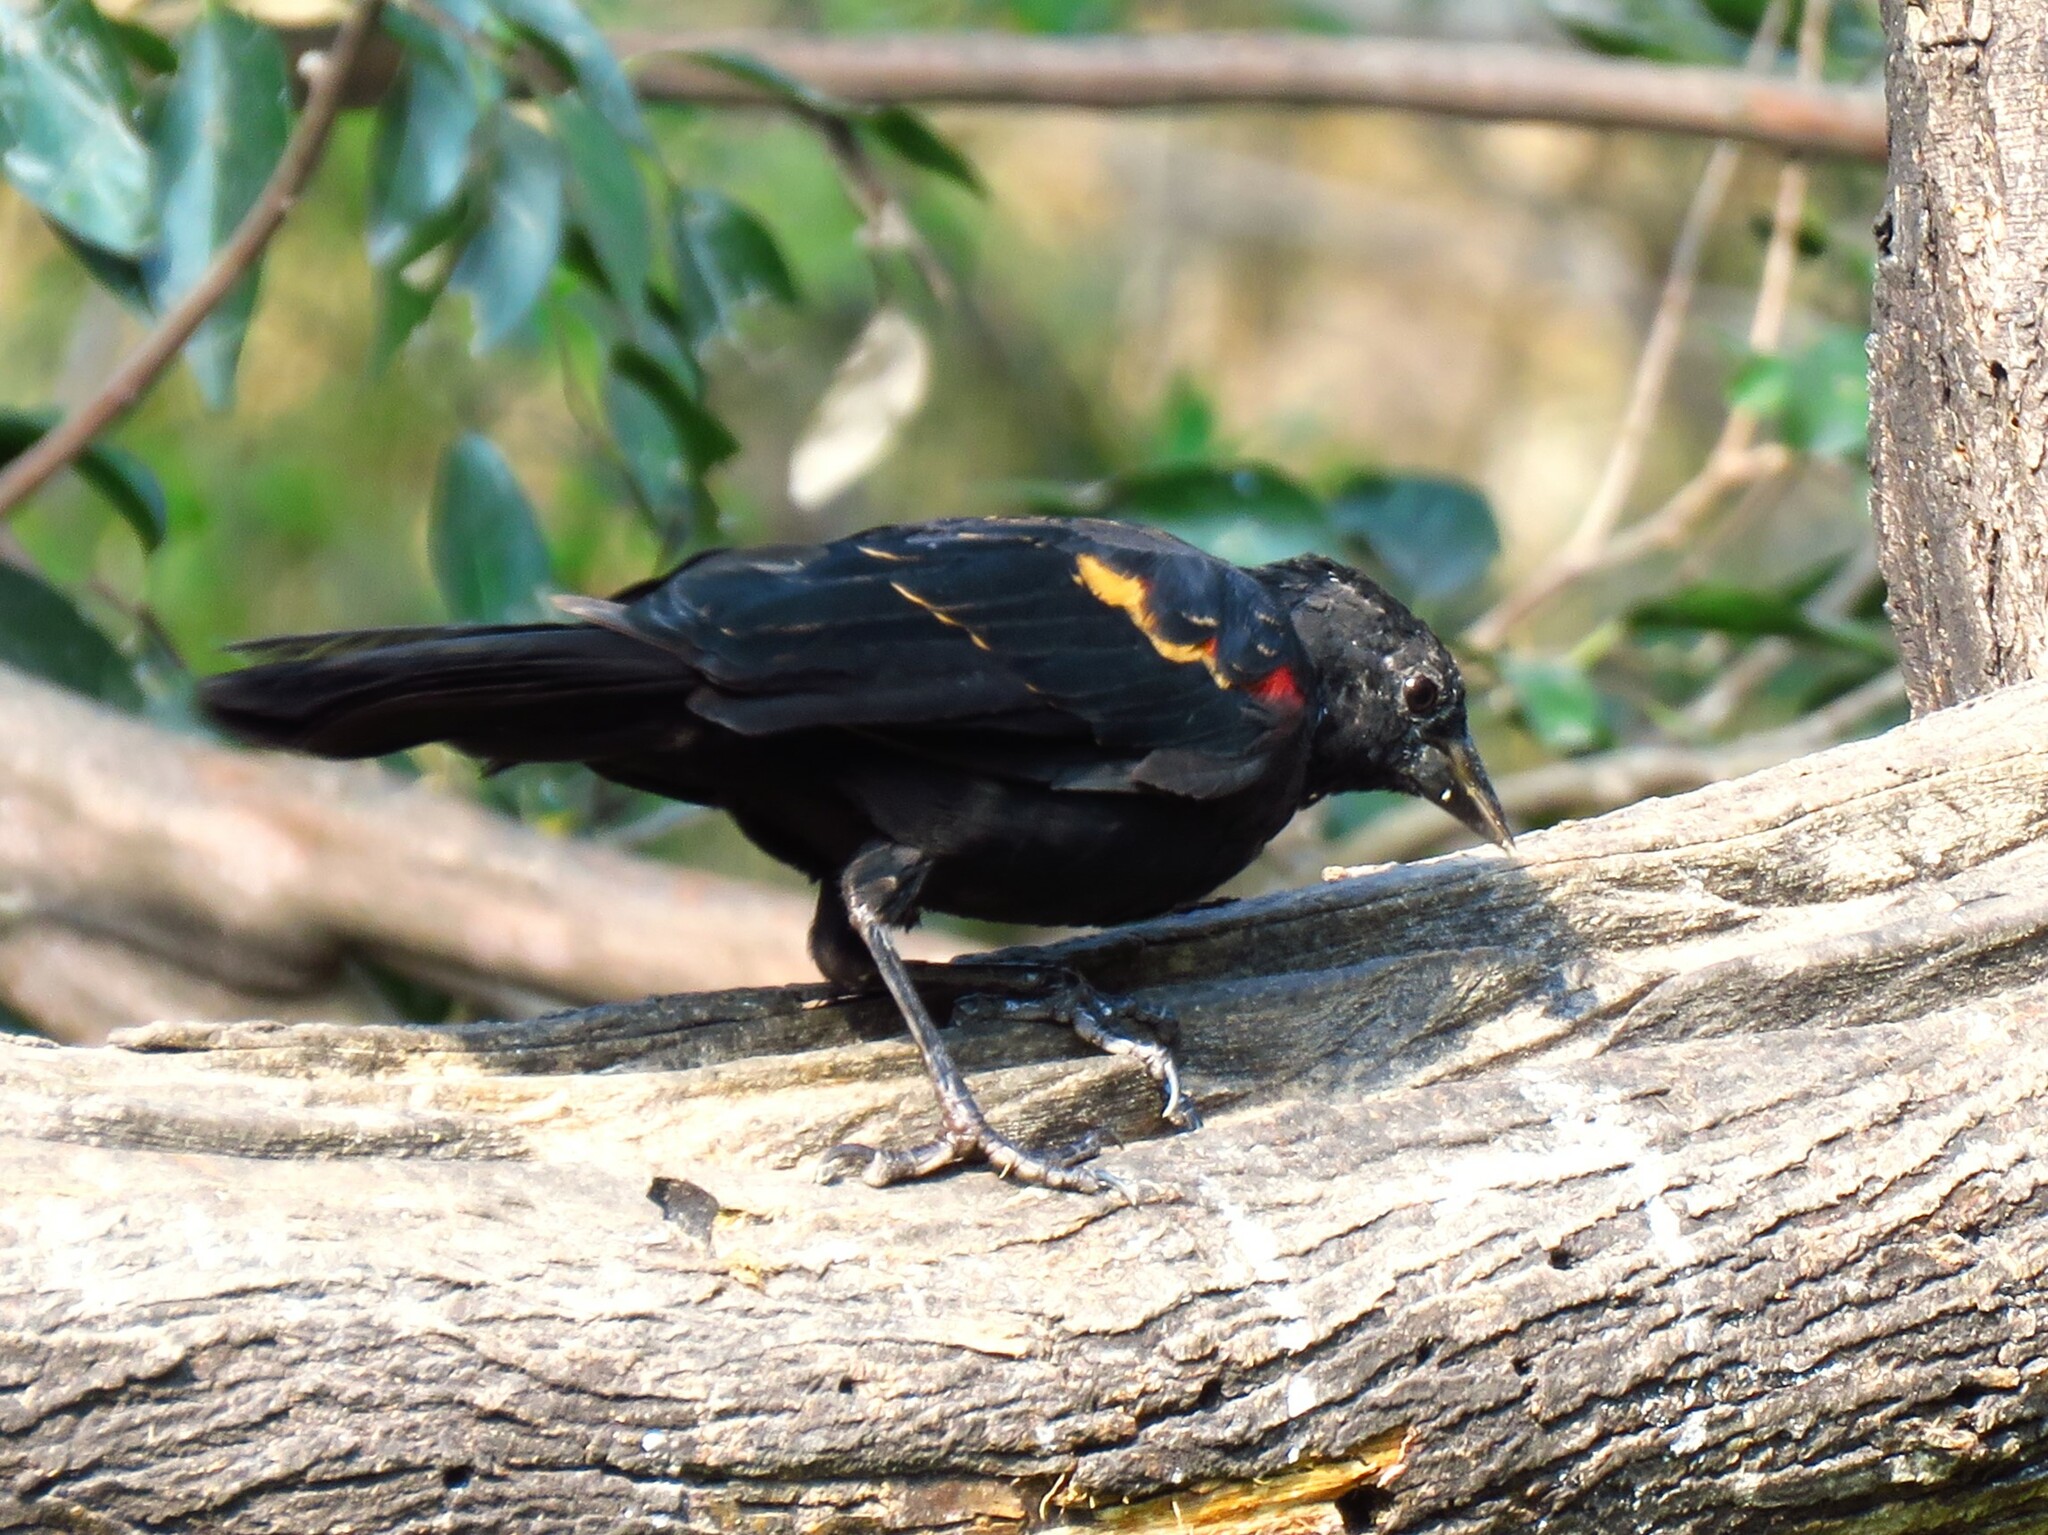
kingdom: Animalia
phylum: Chordata
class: Aves
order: Passeriformes
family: Icteridae
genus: Agelaius
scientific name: Agelaius phoeniceus
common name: Red-winged blackbird
